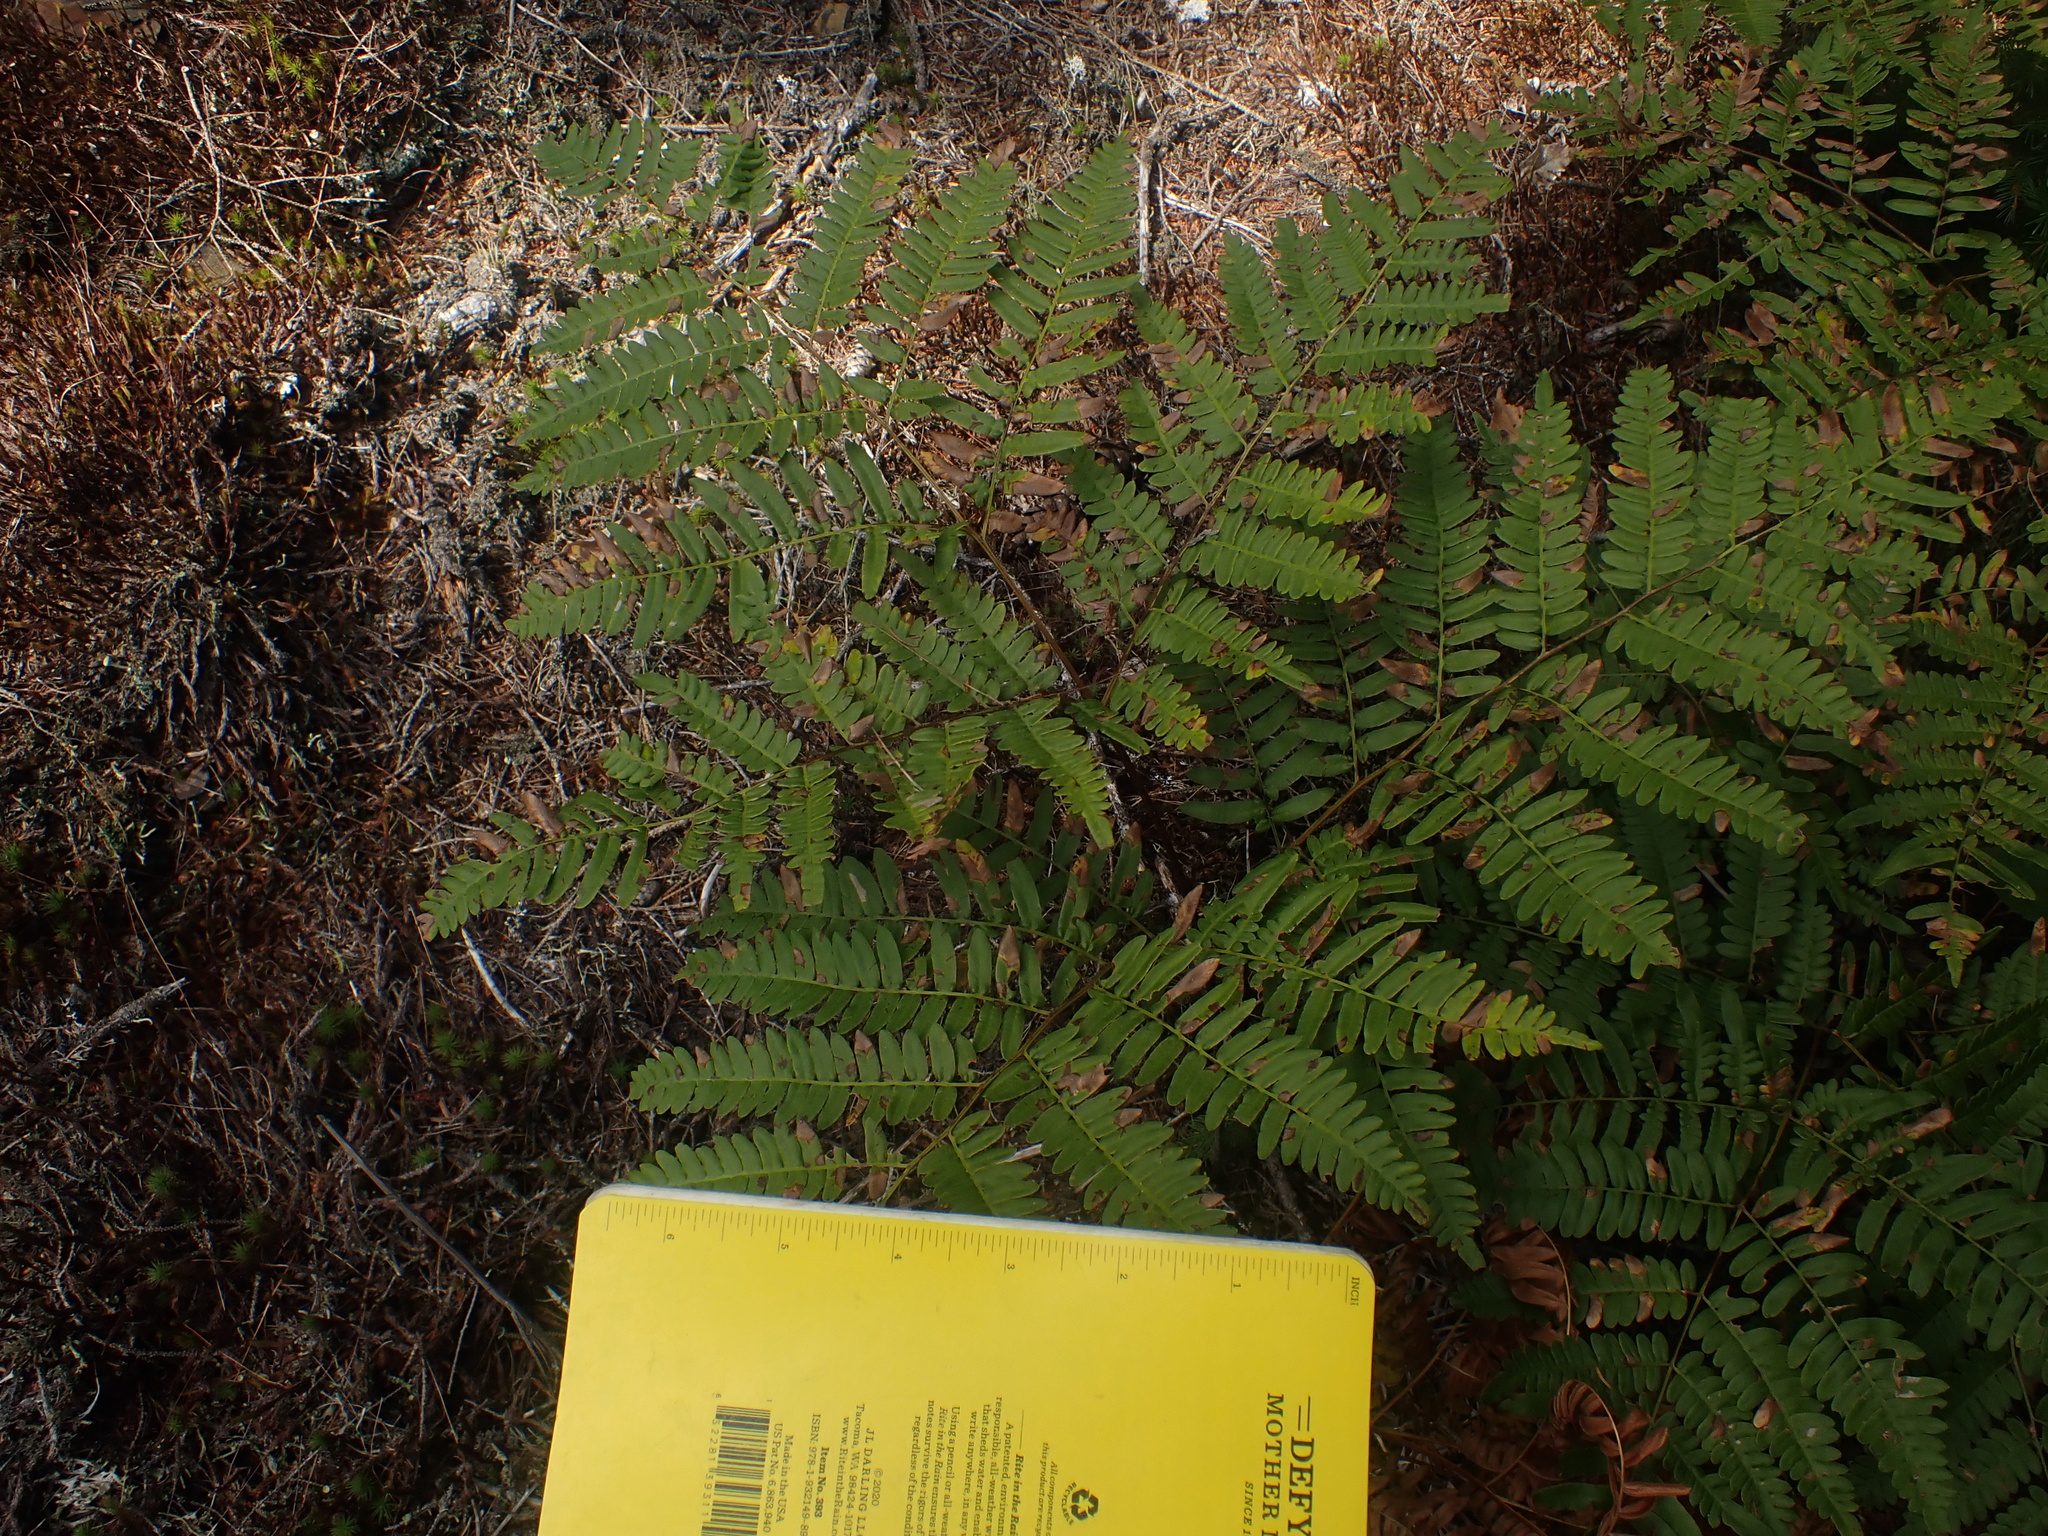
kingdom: Plantae
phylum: Tracheophyta
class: Polypodiopsida
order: Polypodiales
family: Dennstaedtiaceae
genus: Pteridium
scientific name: Pteridium aquilinum
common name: Bracken
